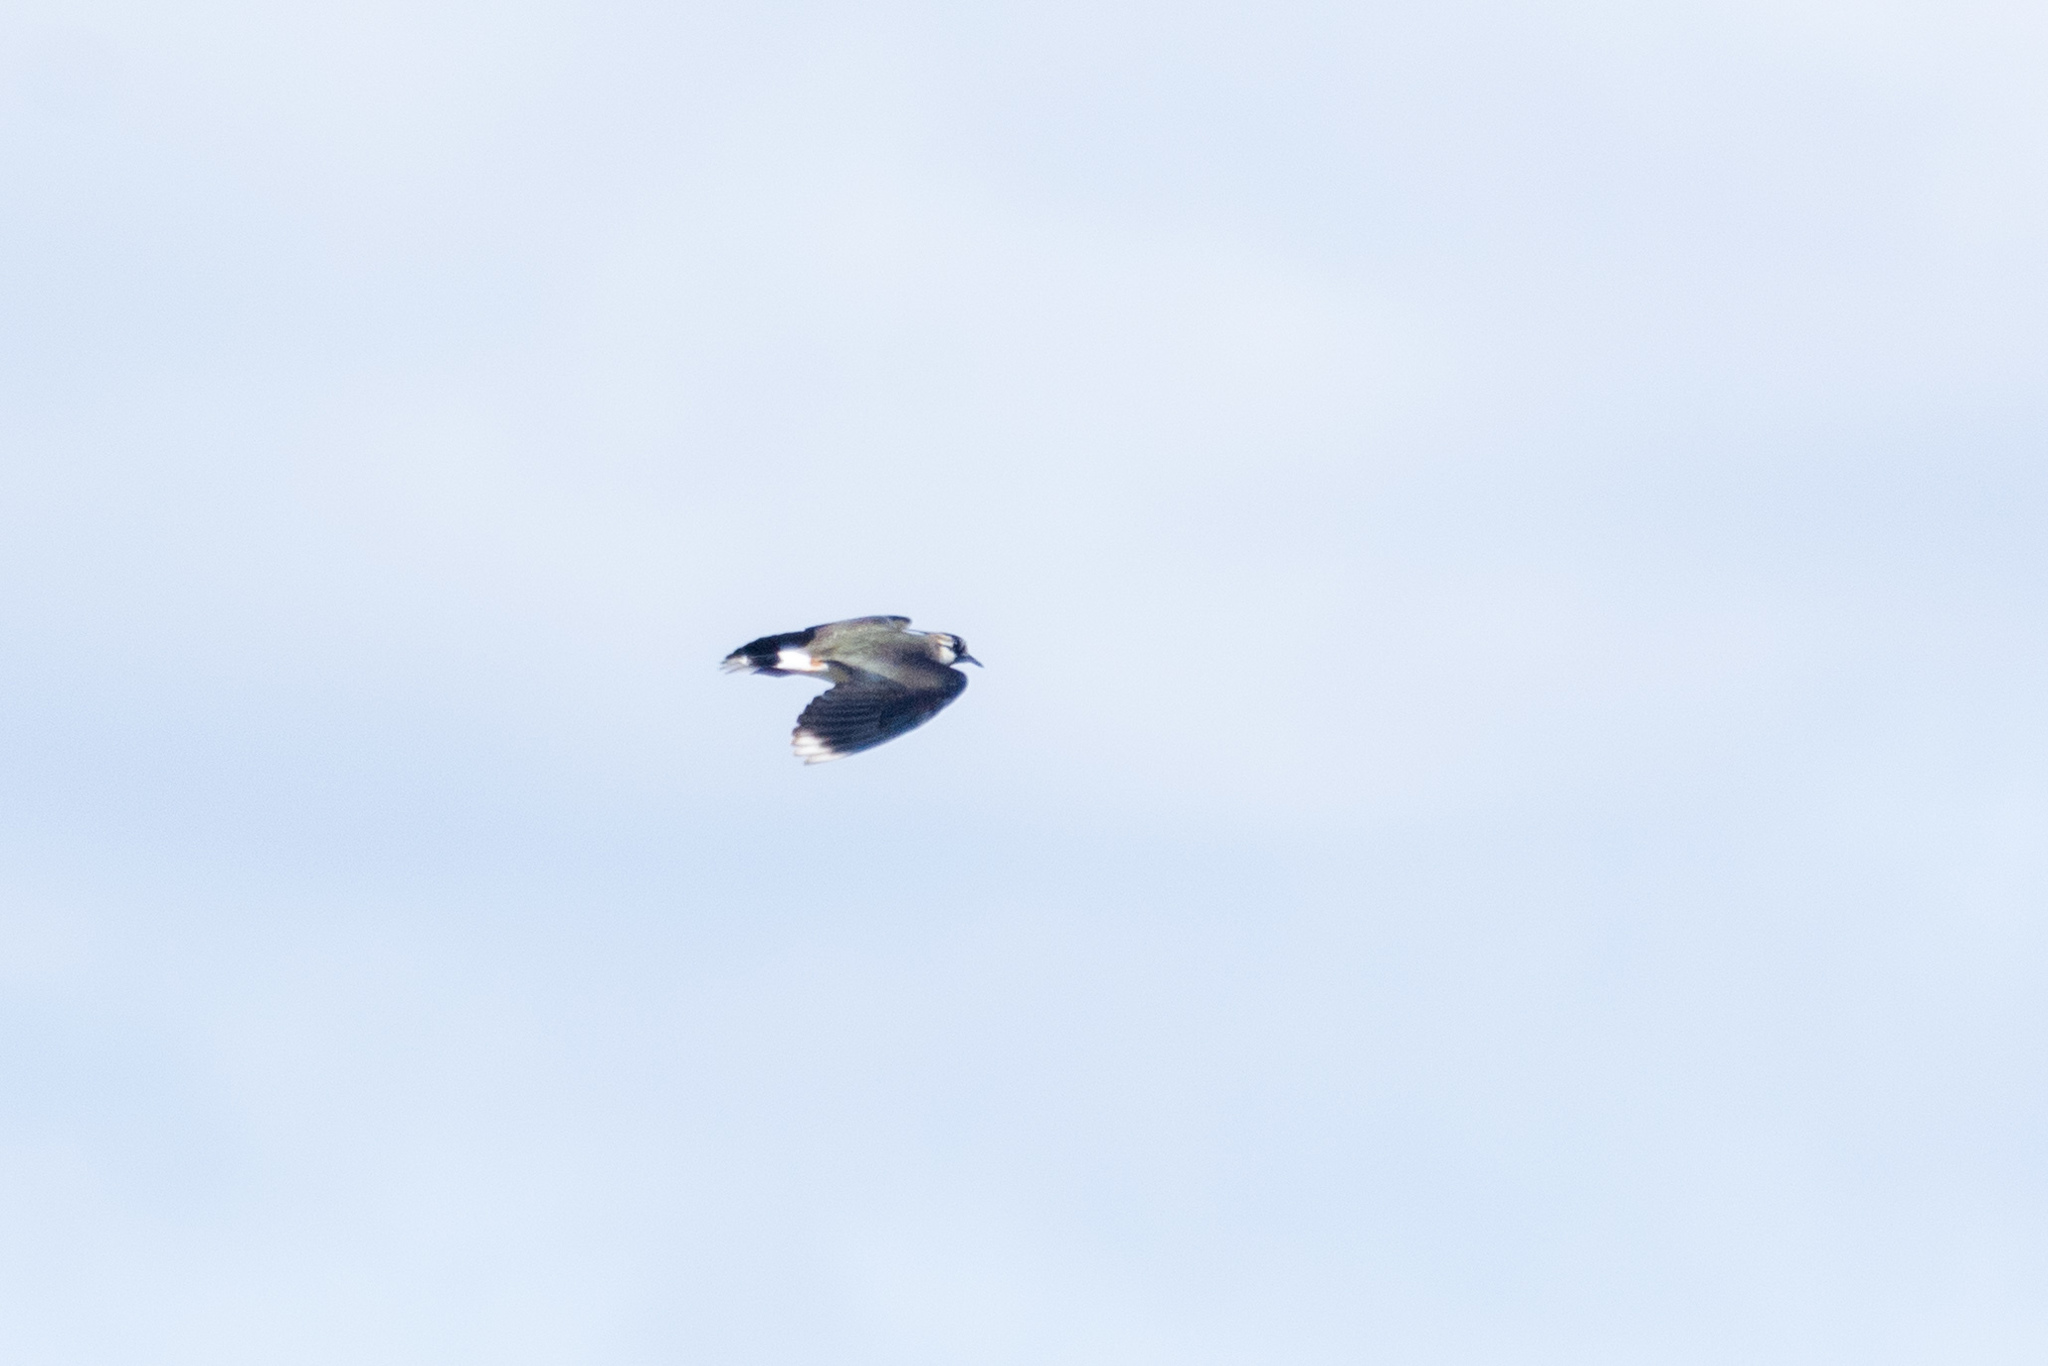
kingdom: Animalia
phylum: Chordata
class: Aves
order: Charadriiformes
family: Charadriidae
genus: Vanellus
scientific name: Vanellus vanellus
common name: Northern lapwing
